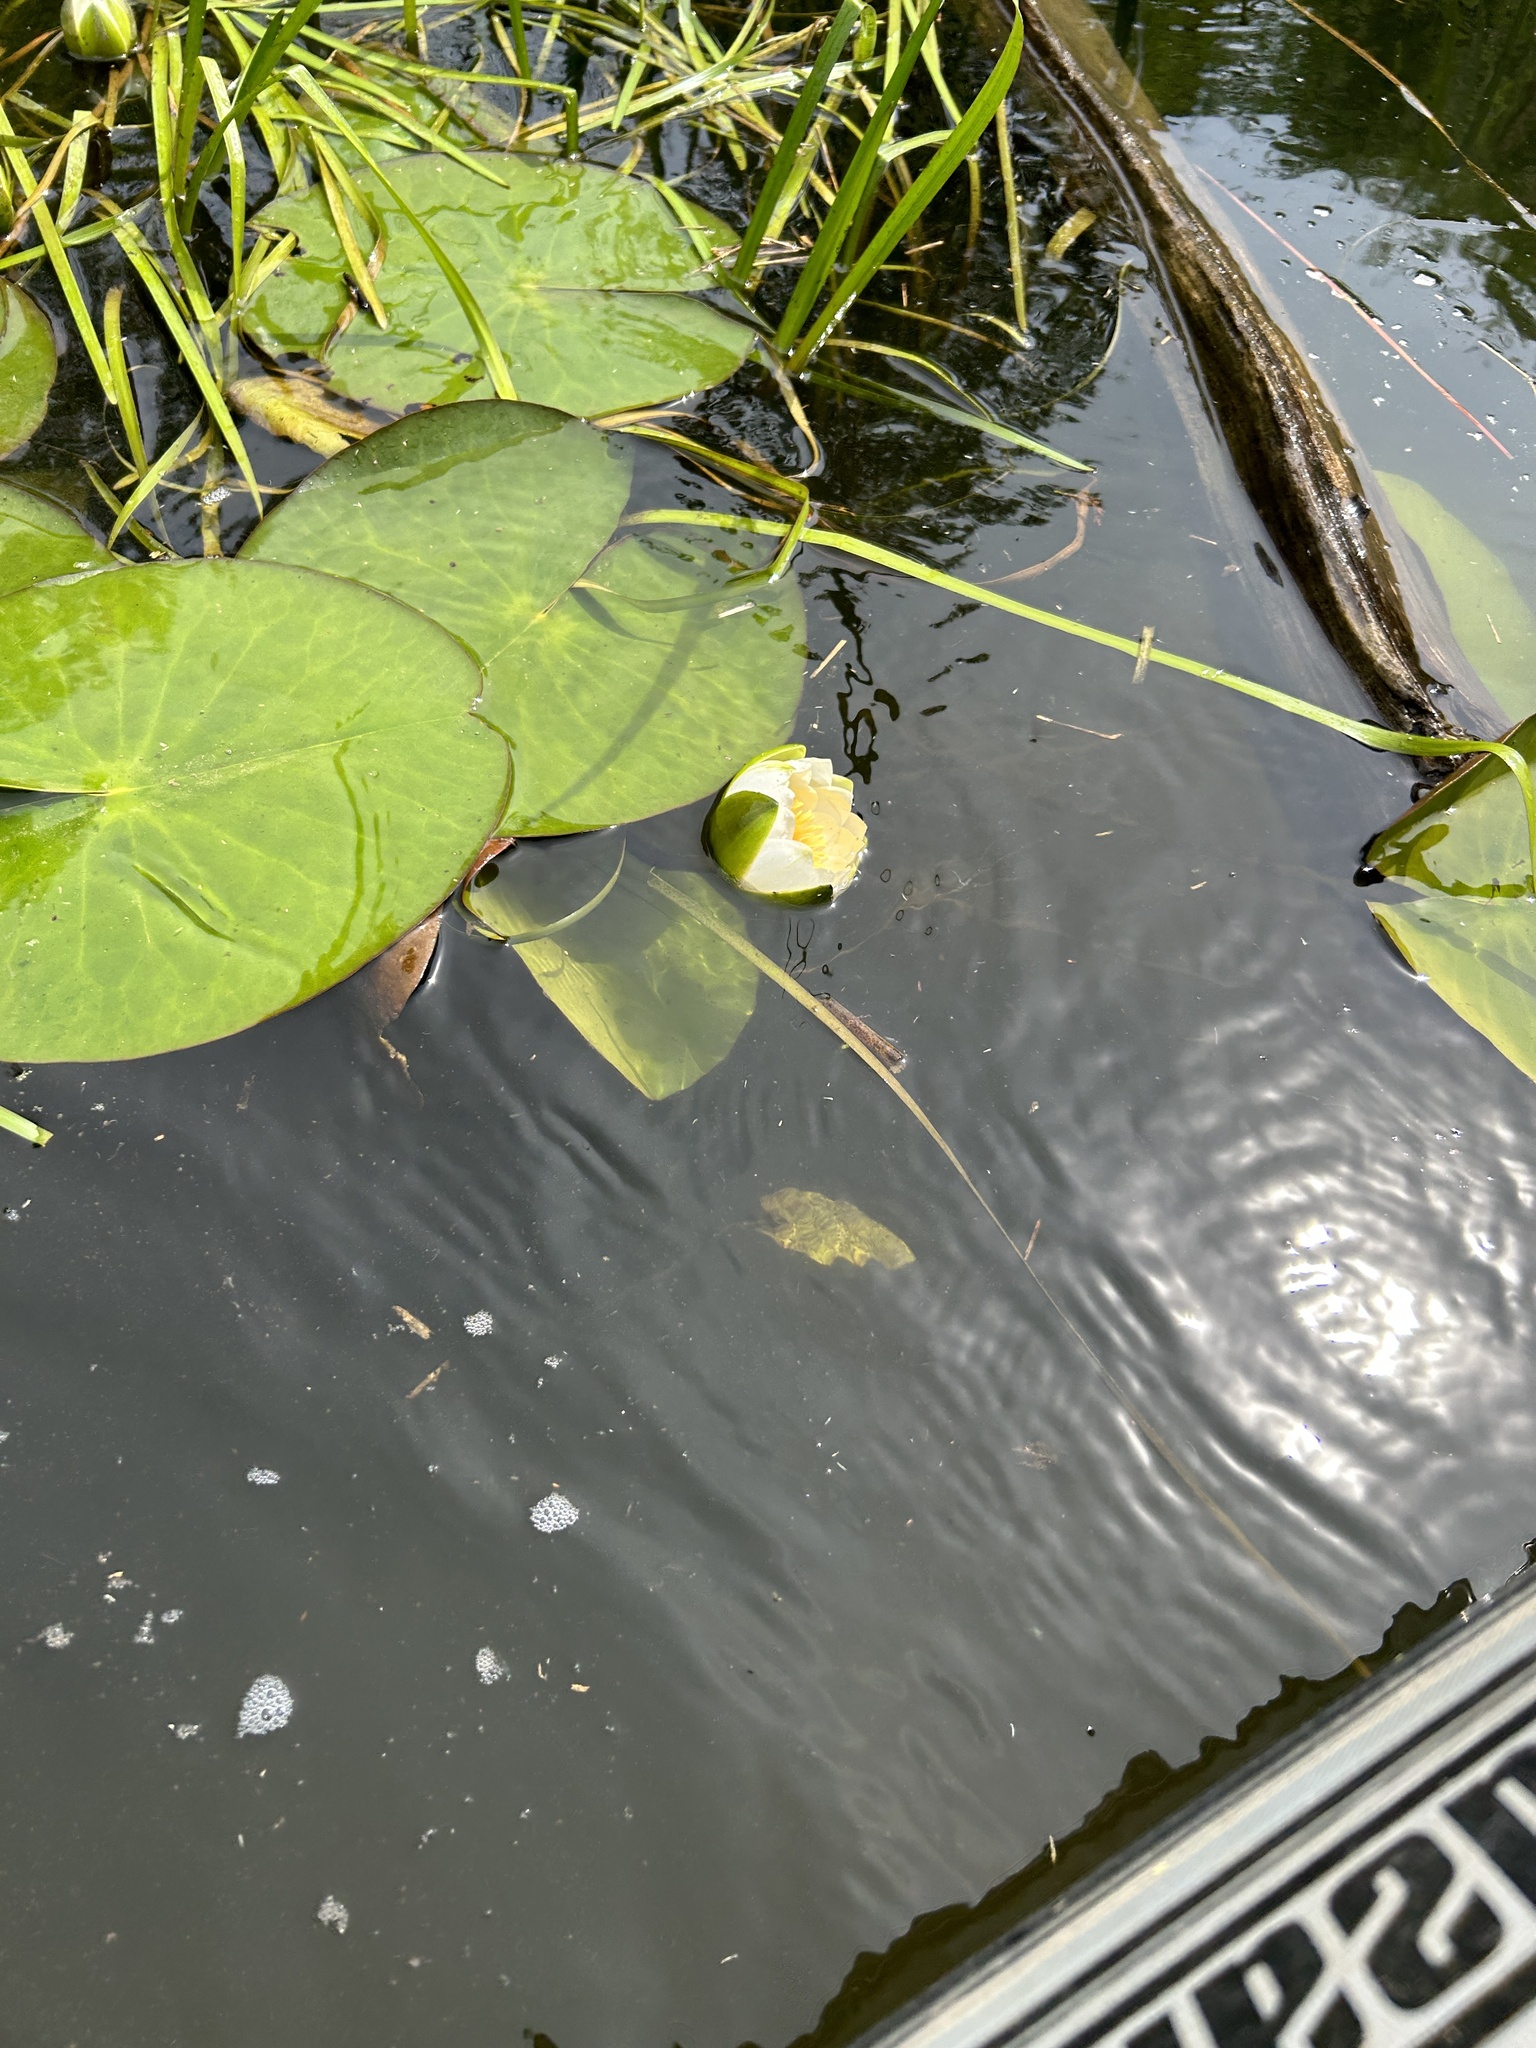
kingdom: Plantae
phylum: Tracheophyta
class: Magnoliopsida
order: Nymphaeales
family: Nymphaeaceae
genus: Nymphaea
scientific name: Nymphaea candida
